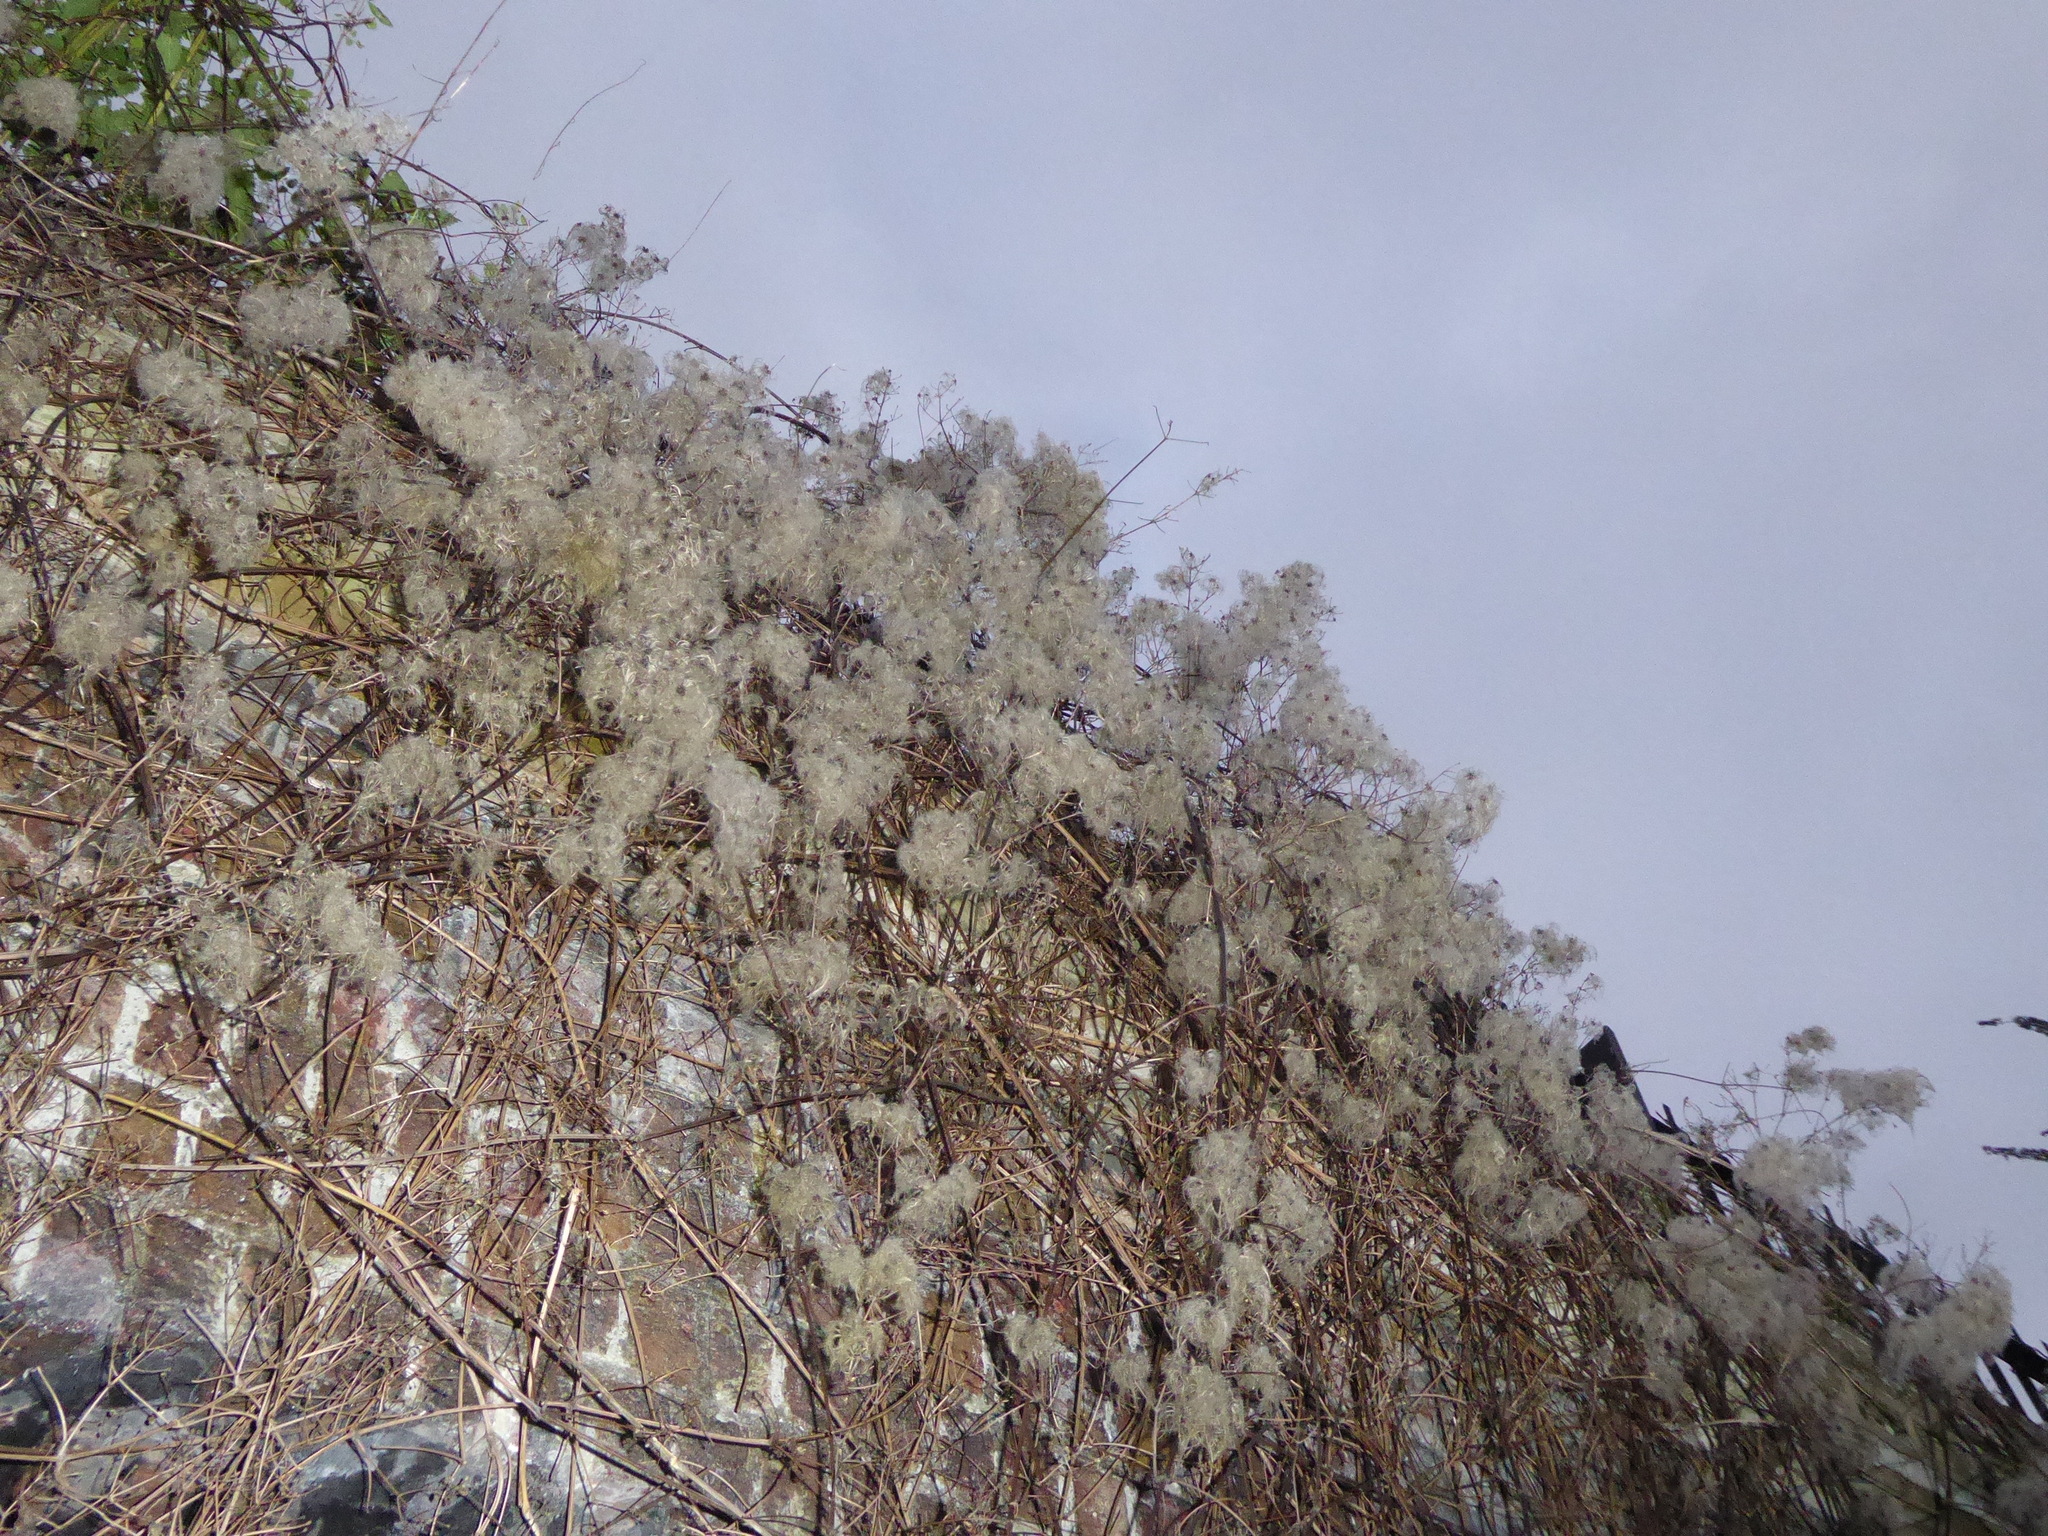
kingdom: Plantae
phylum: Tracheophyta
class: Magnoliopsida
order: Ranunculales
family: Ranunculaceae
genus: Clematis
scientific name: Clematis vitalba
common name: Evergreen clematis
